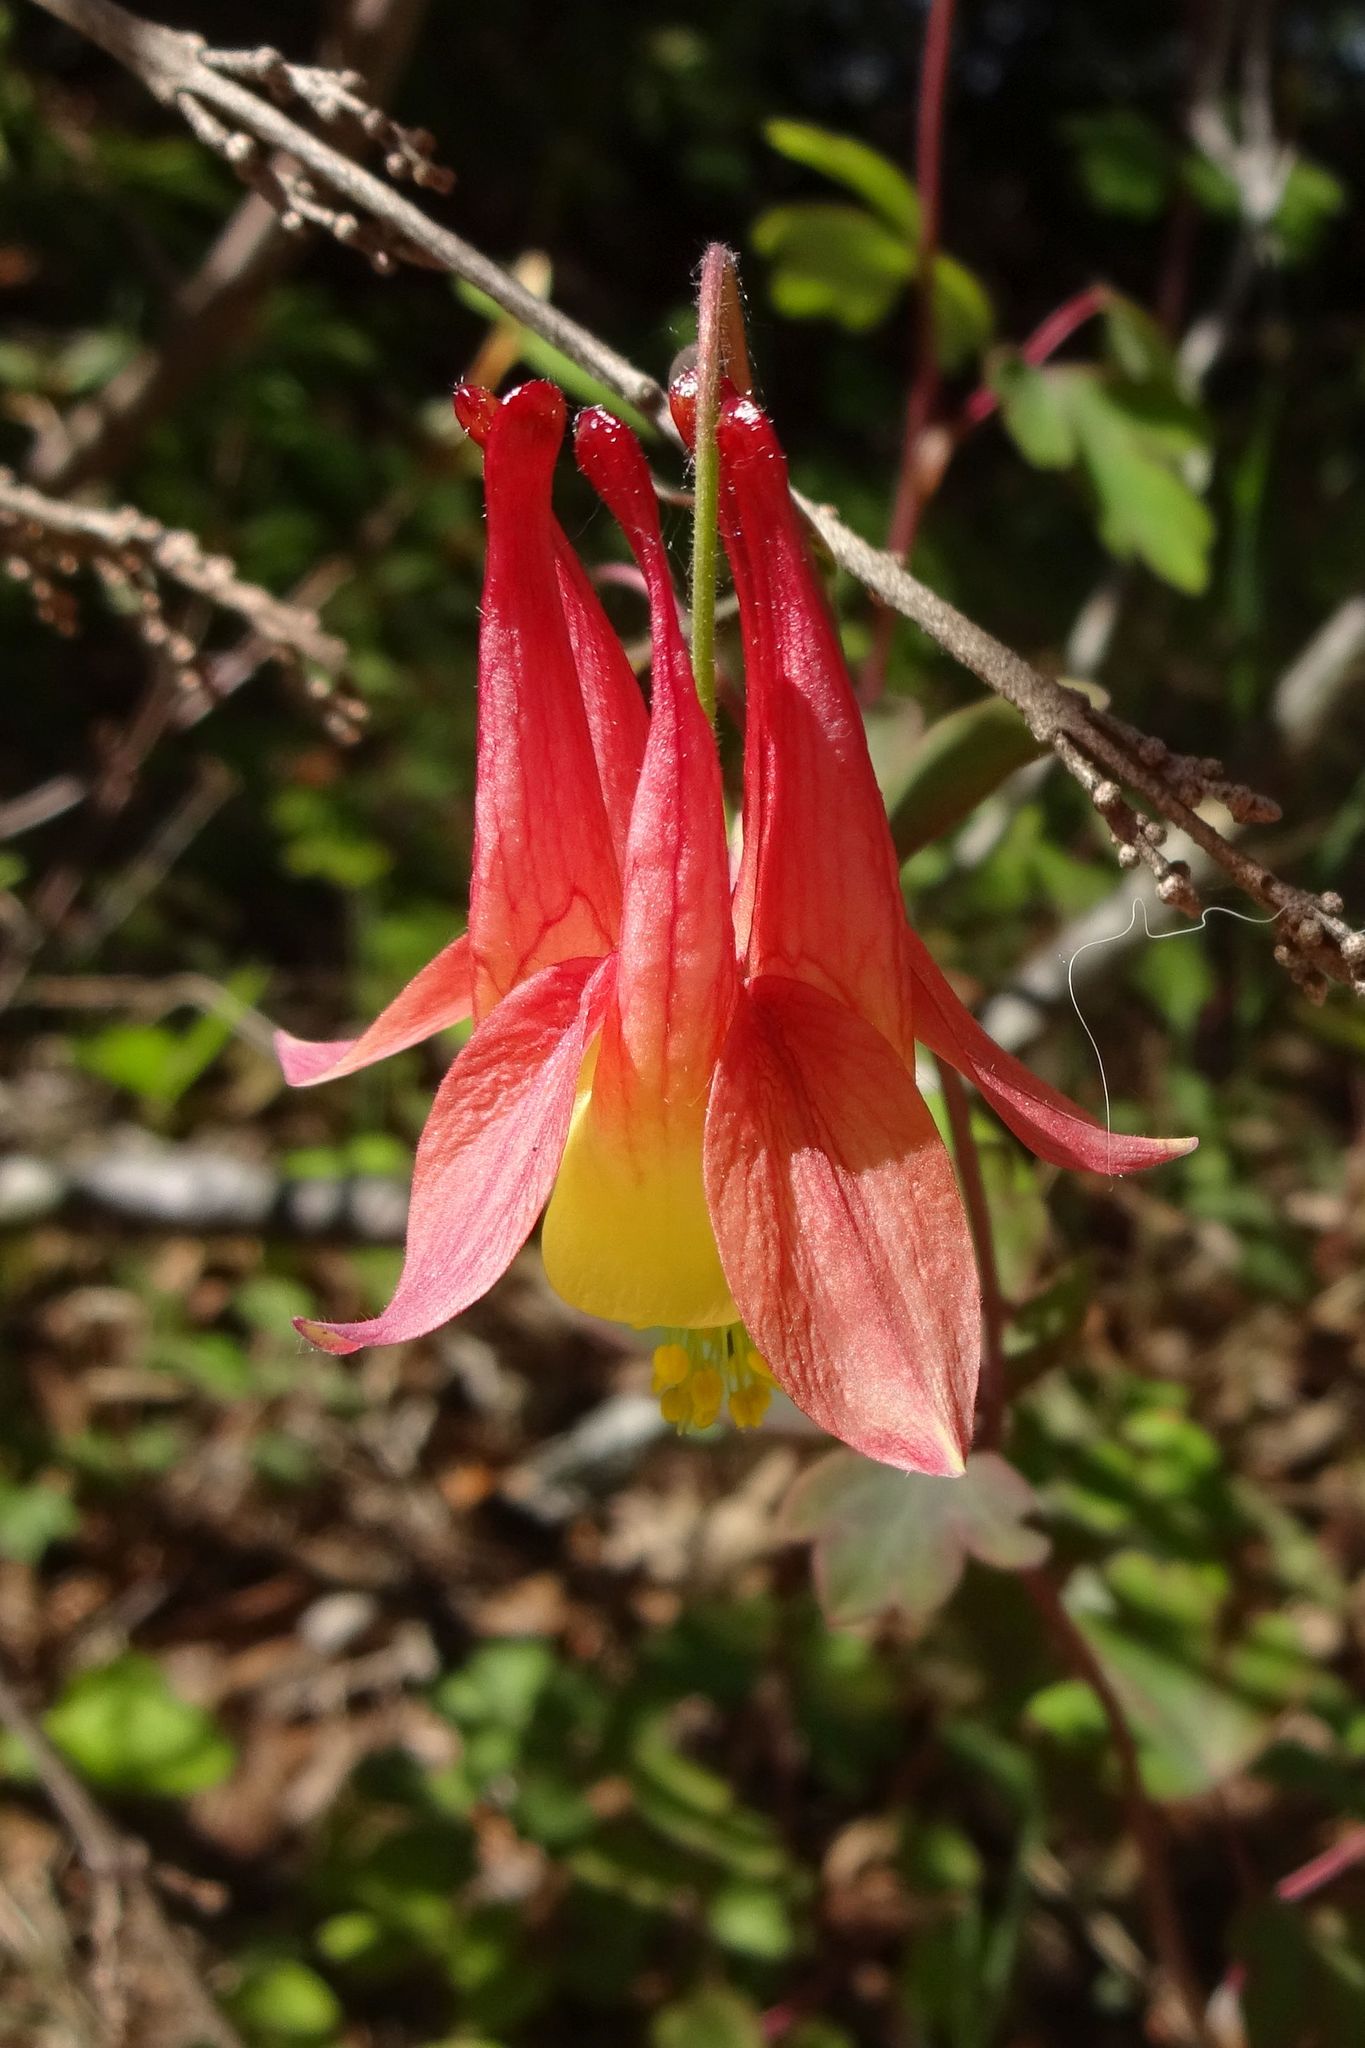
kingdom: Plantae
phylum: Tracheophyta
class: Magnoliopsida
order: Ranunculales
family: Ranunculaceae
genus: Aquilegia
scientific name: Aquilegia canadensis
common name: American columbine
